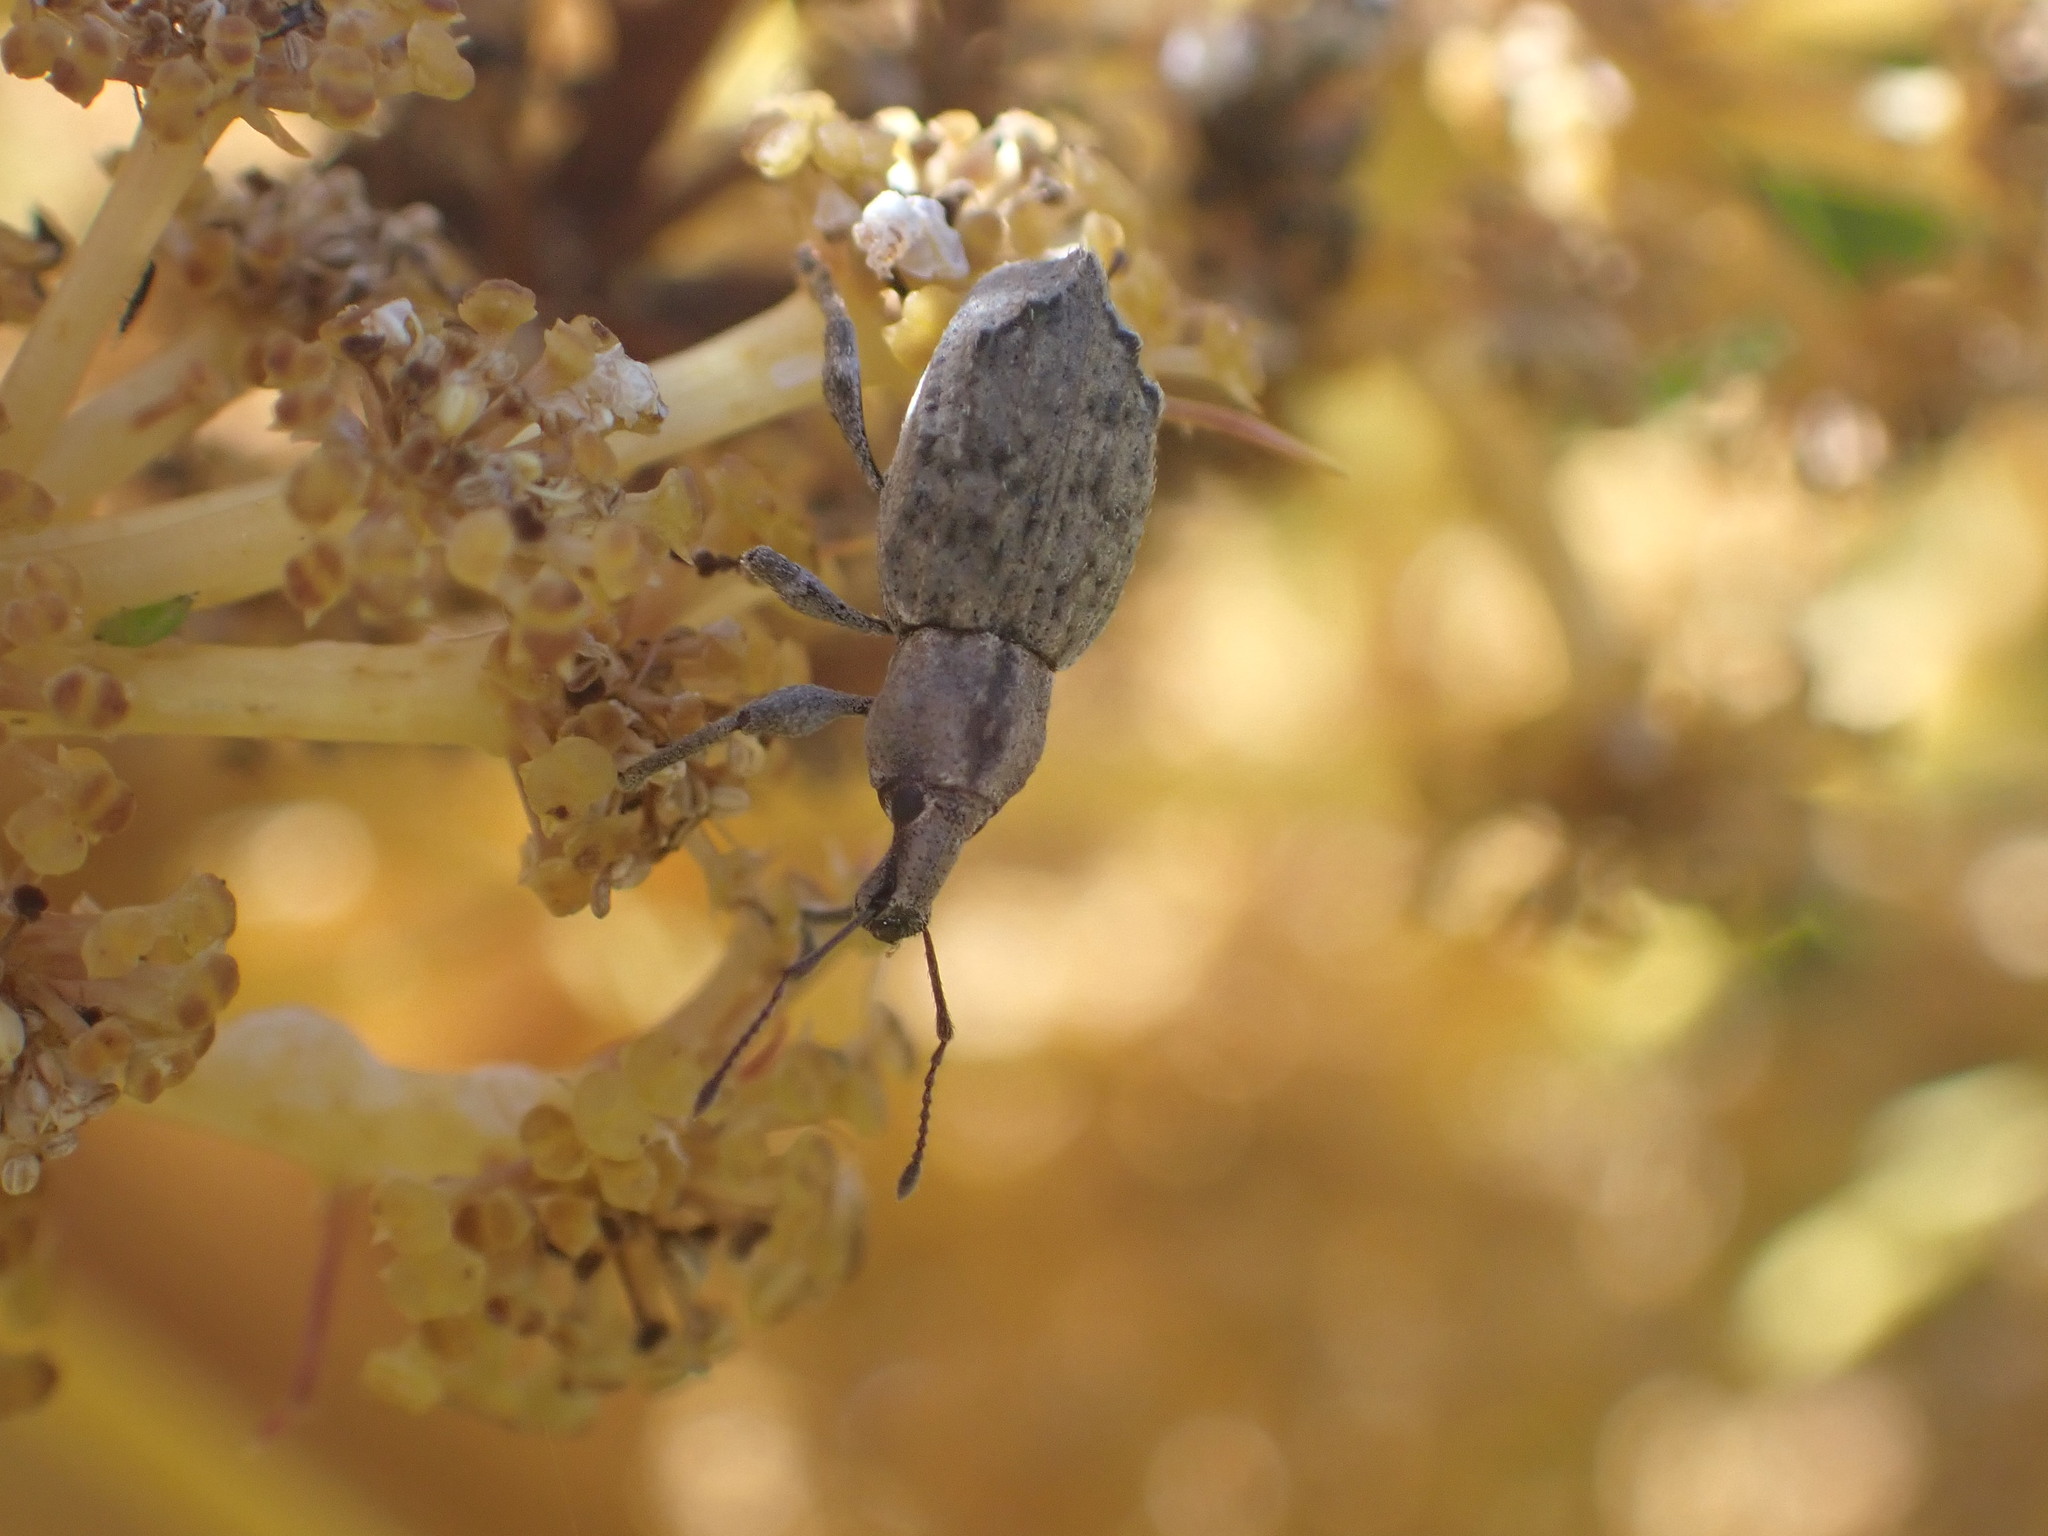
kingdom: Animalia
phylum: Arthropoda
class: Insecta
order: Coleoptera
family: Curculionidae
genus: Chalepistes
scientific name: Chalepistes pensus
